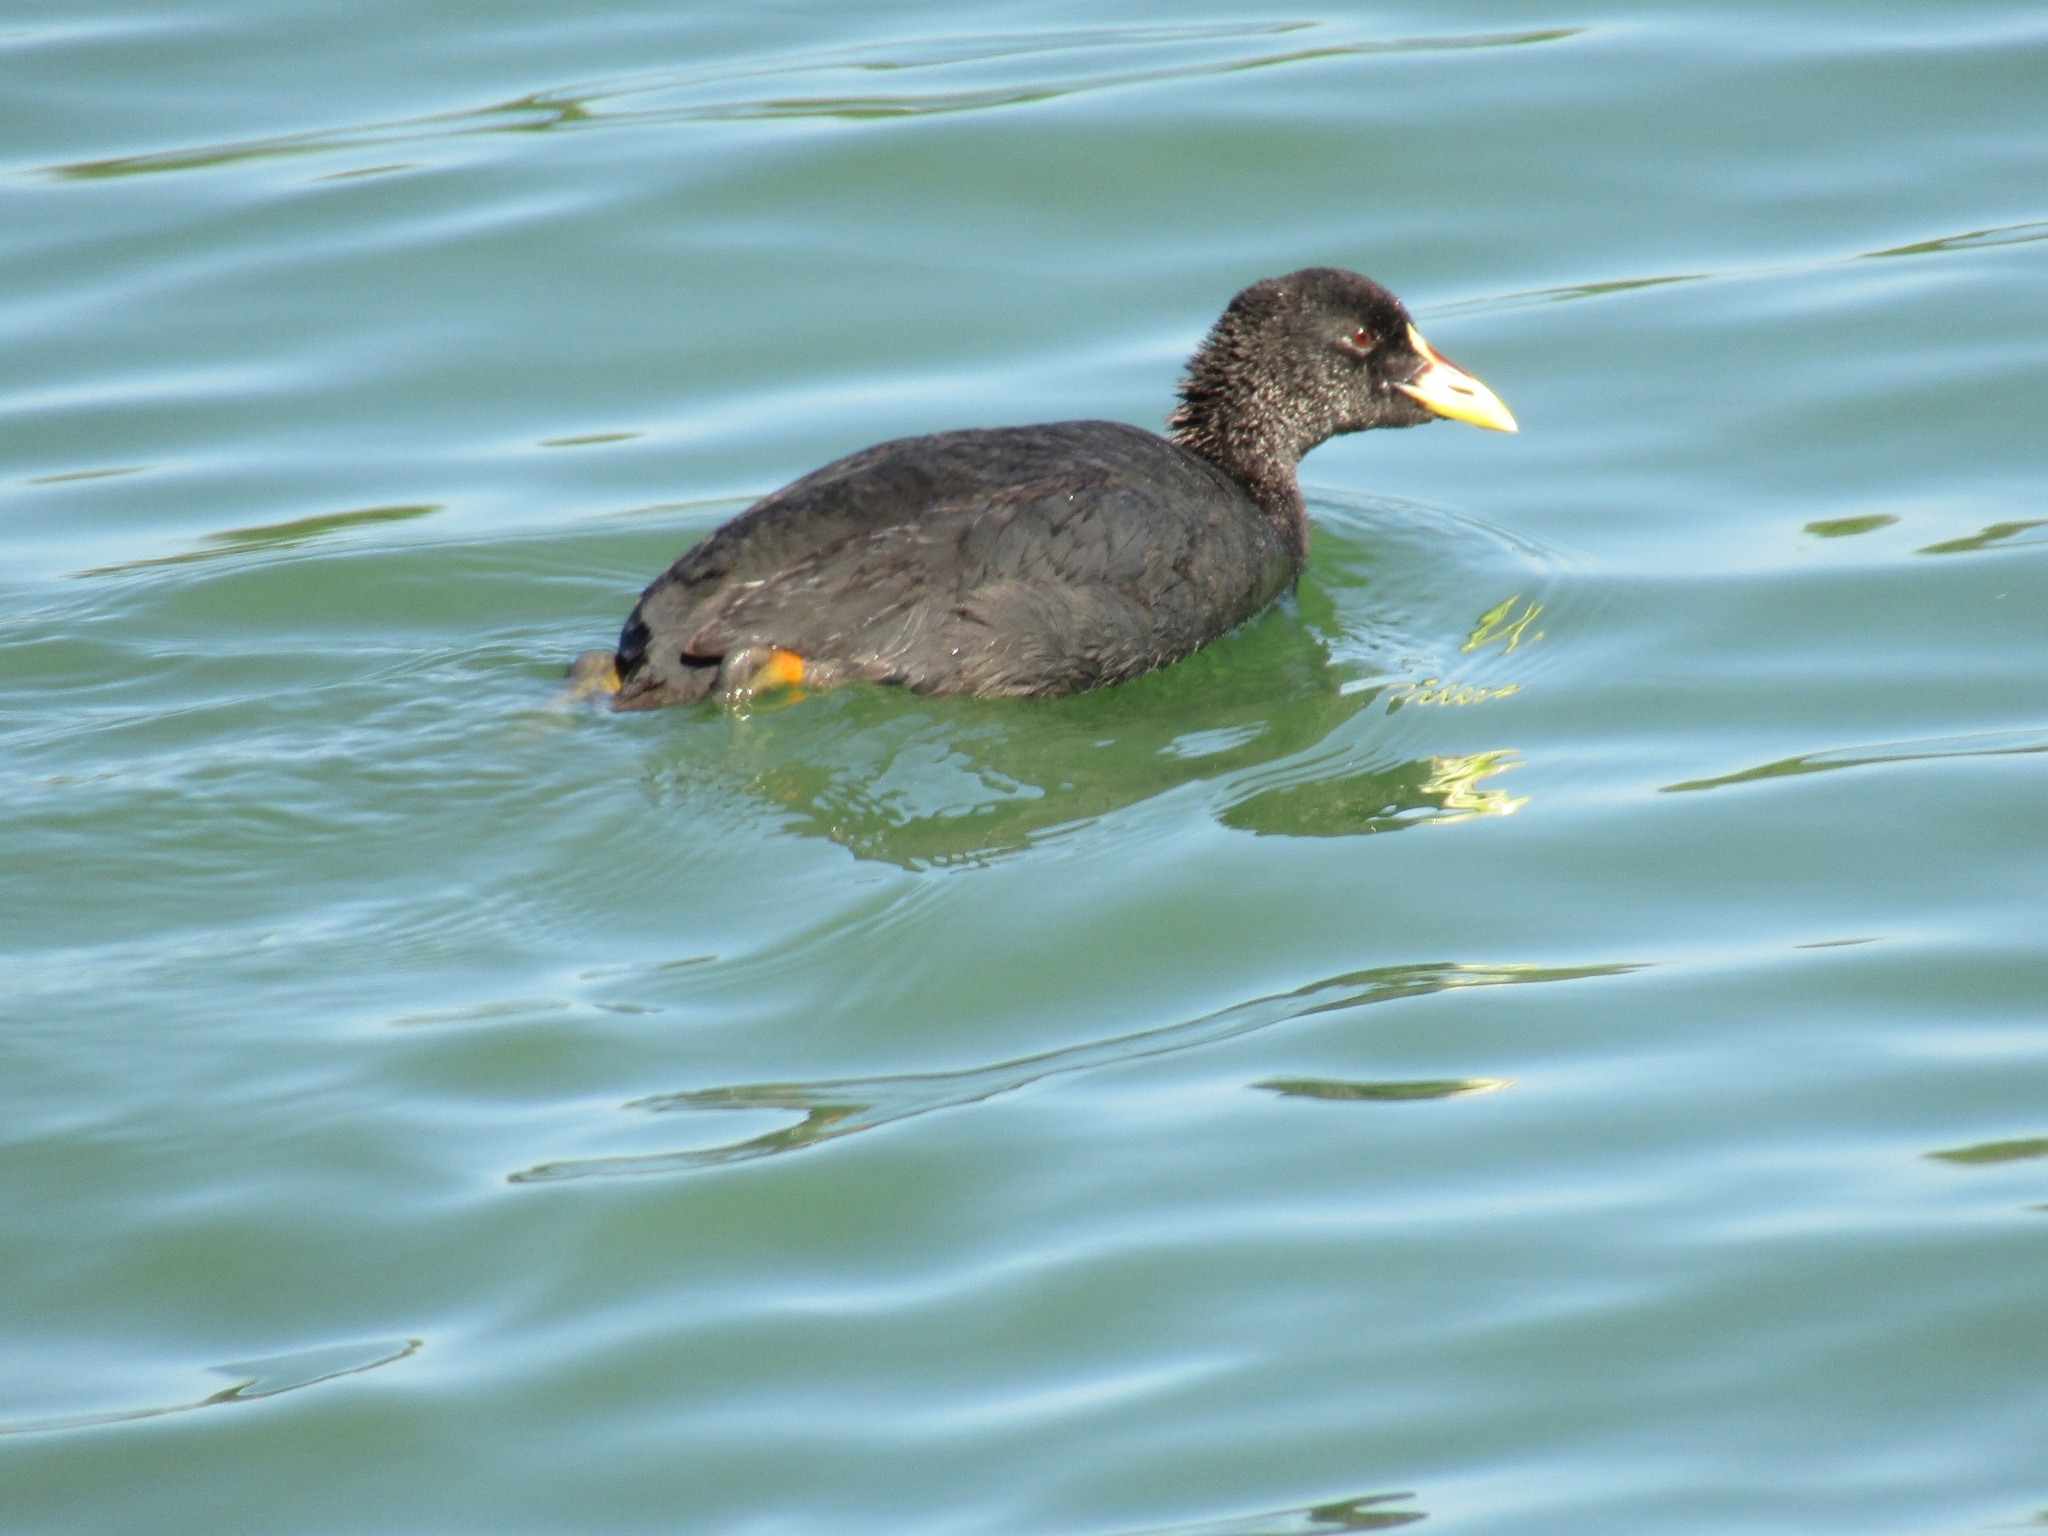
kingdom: Animalia
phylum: Chordata
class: Aves
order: Gruiformes
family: Rallidae
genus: Fulica
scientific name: Fulica armillata
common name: Red-gartered coot
